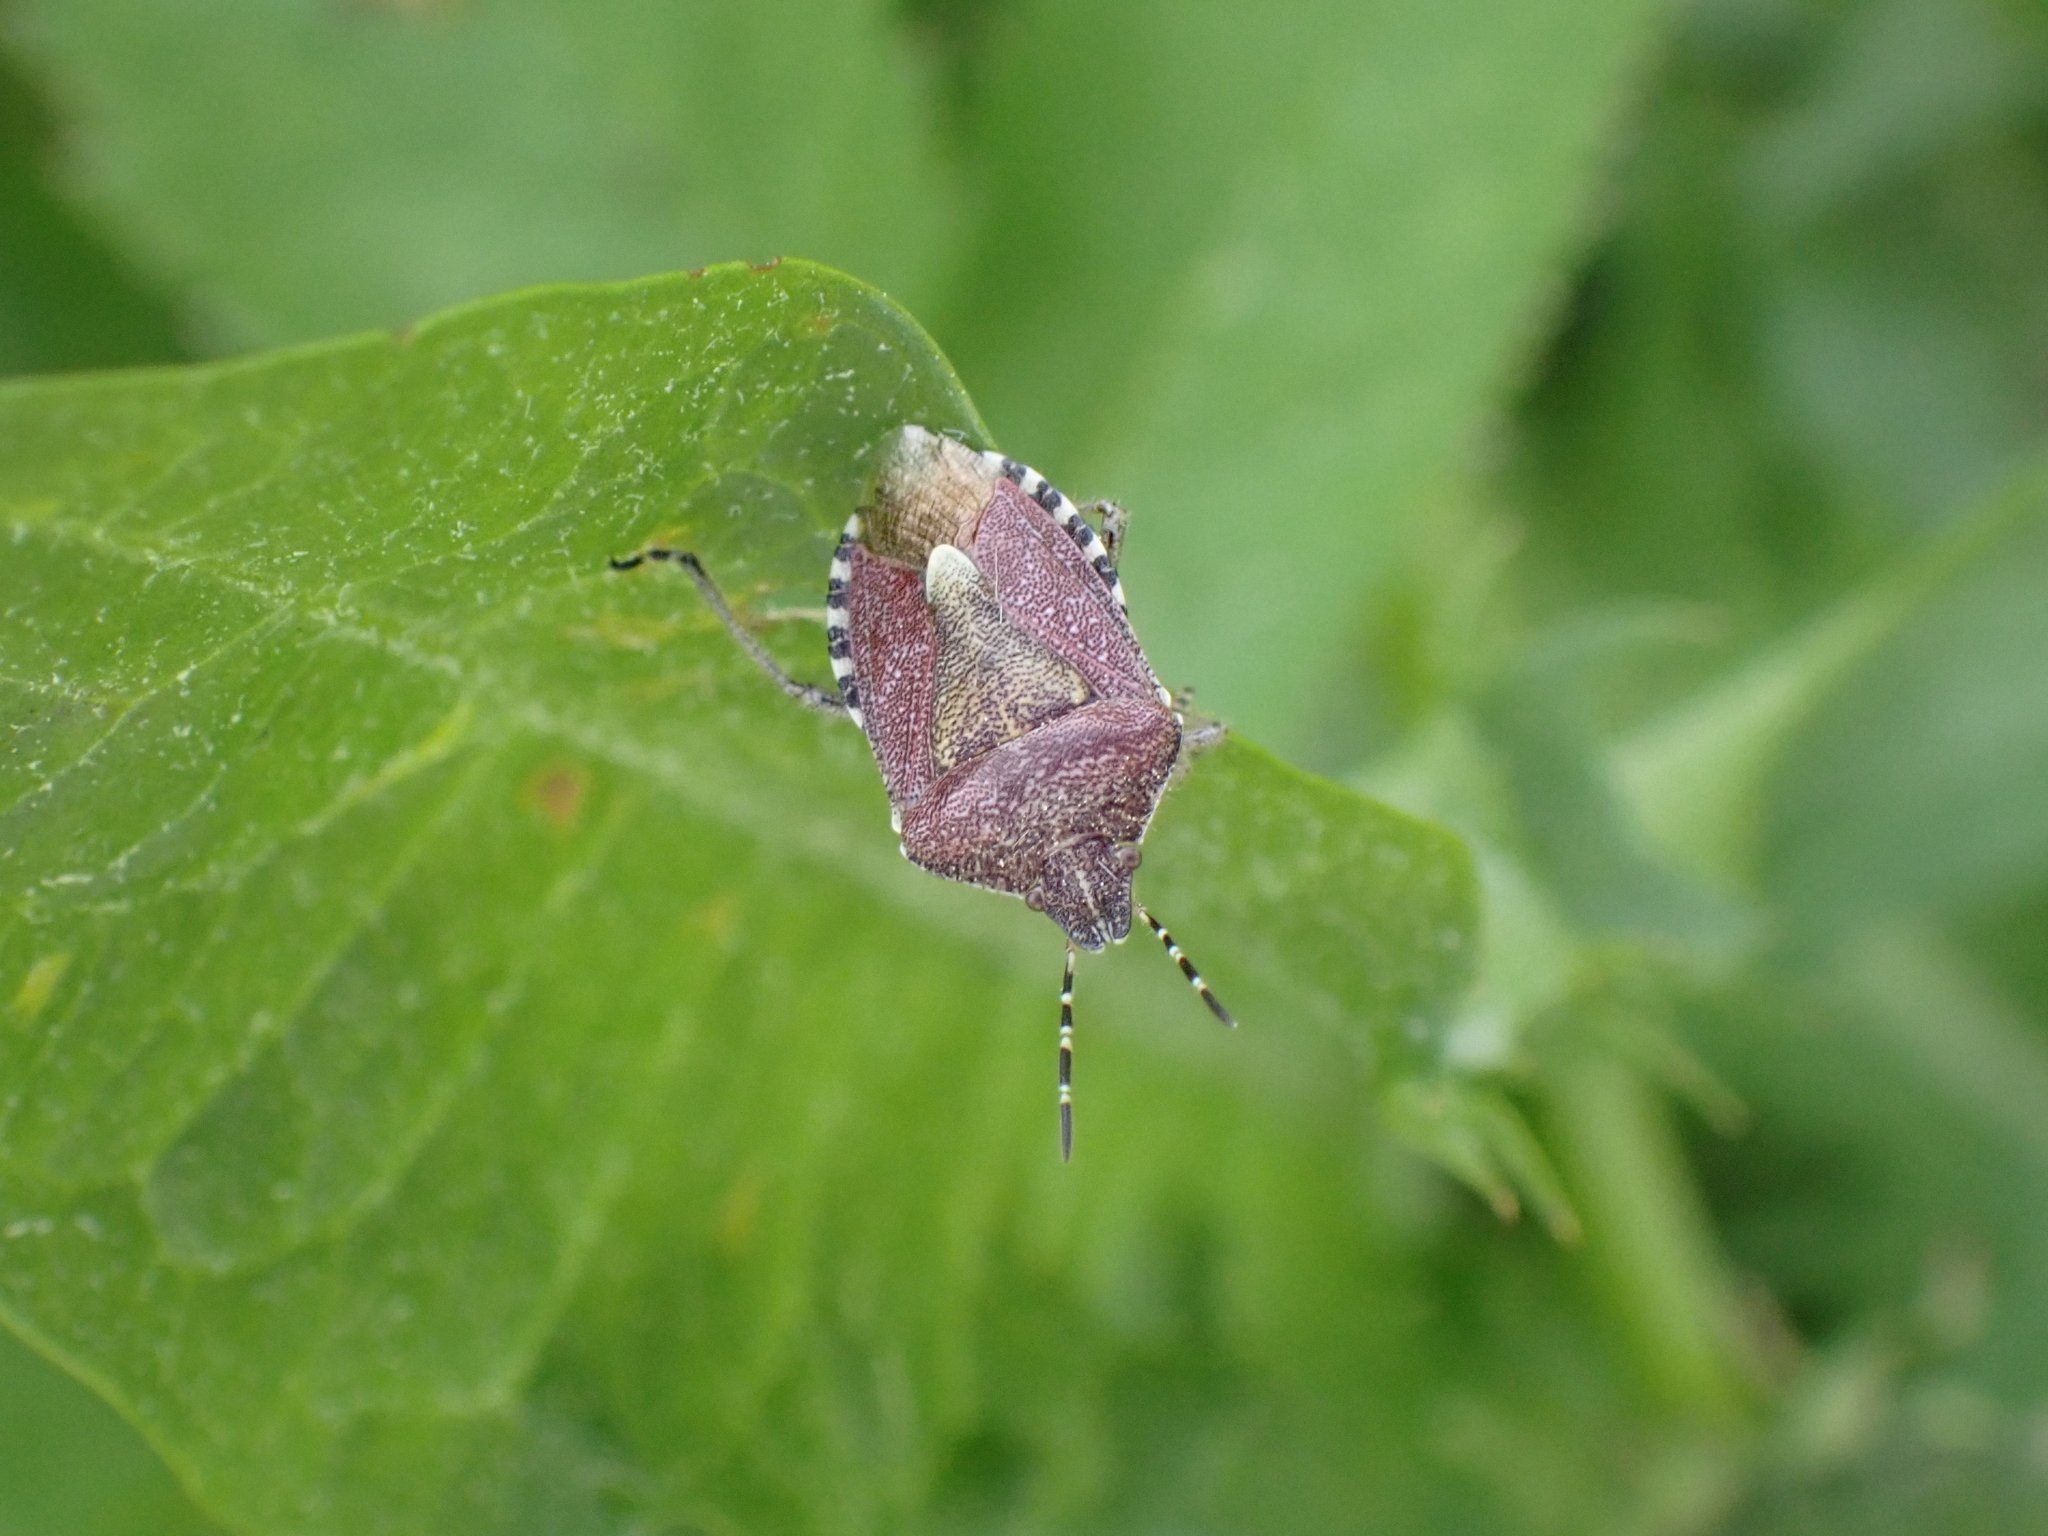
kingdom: Animalia
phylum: Arthropoda
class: Insecta
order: Hemiptera
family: Pentatomidae
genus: Dolycoris
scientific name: Dolycoris baccarum
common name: Sloe bug
